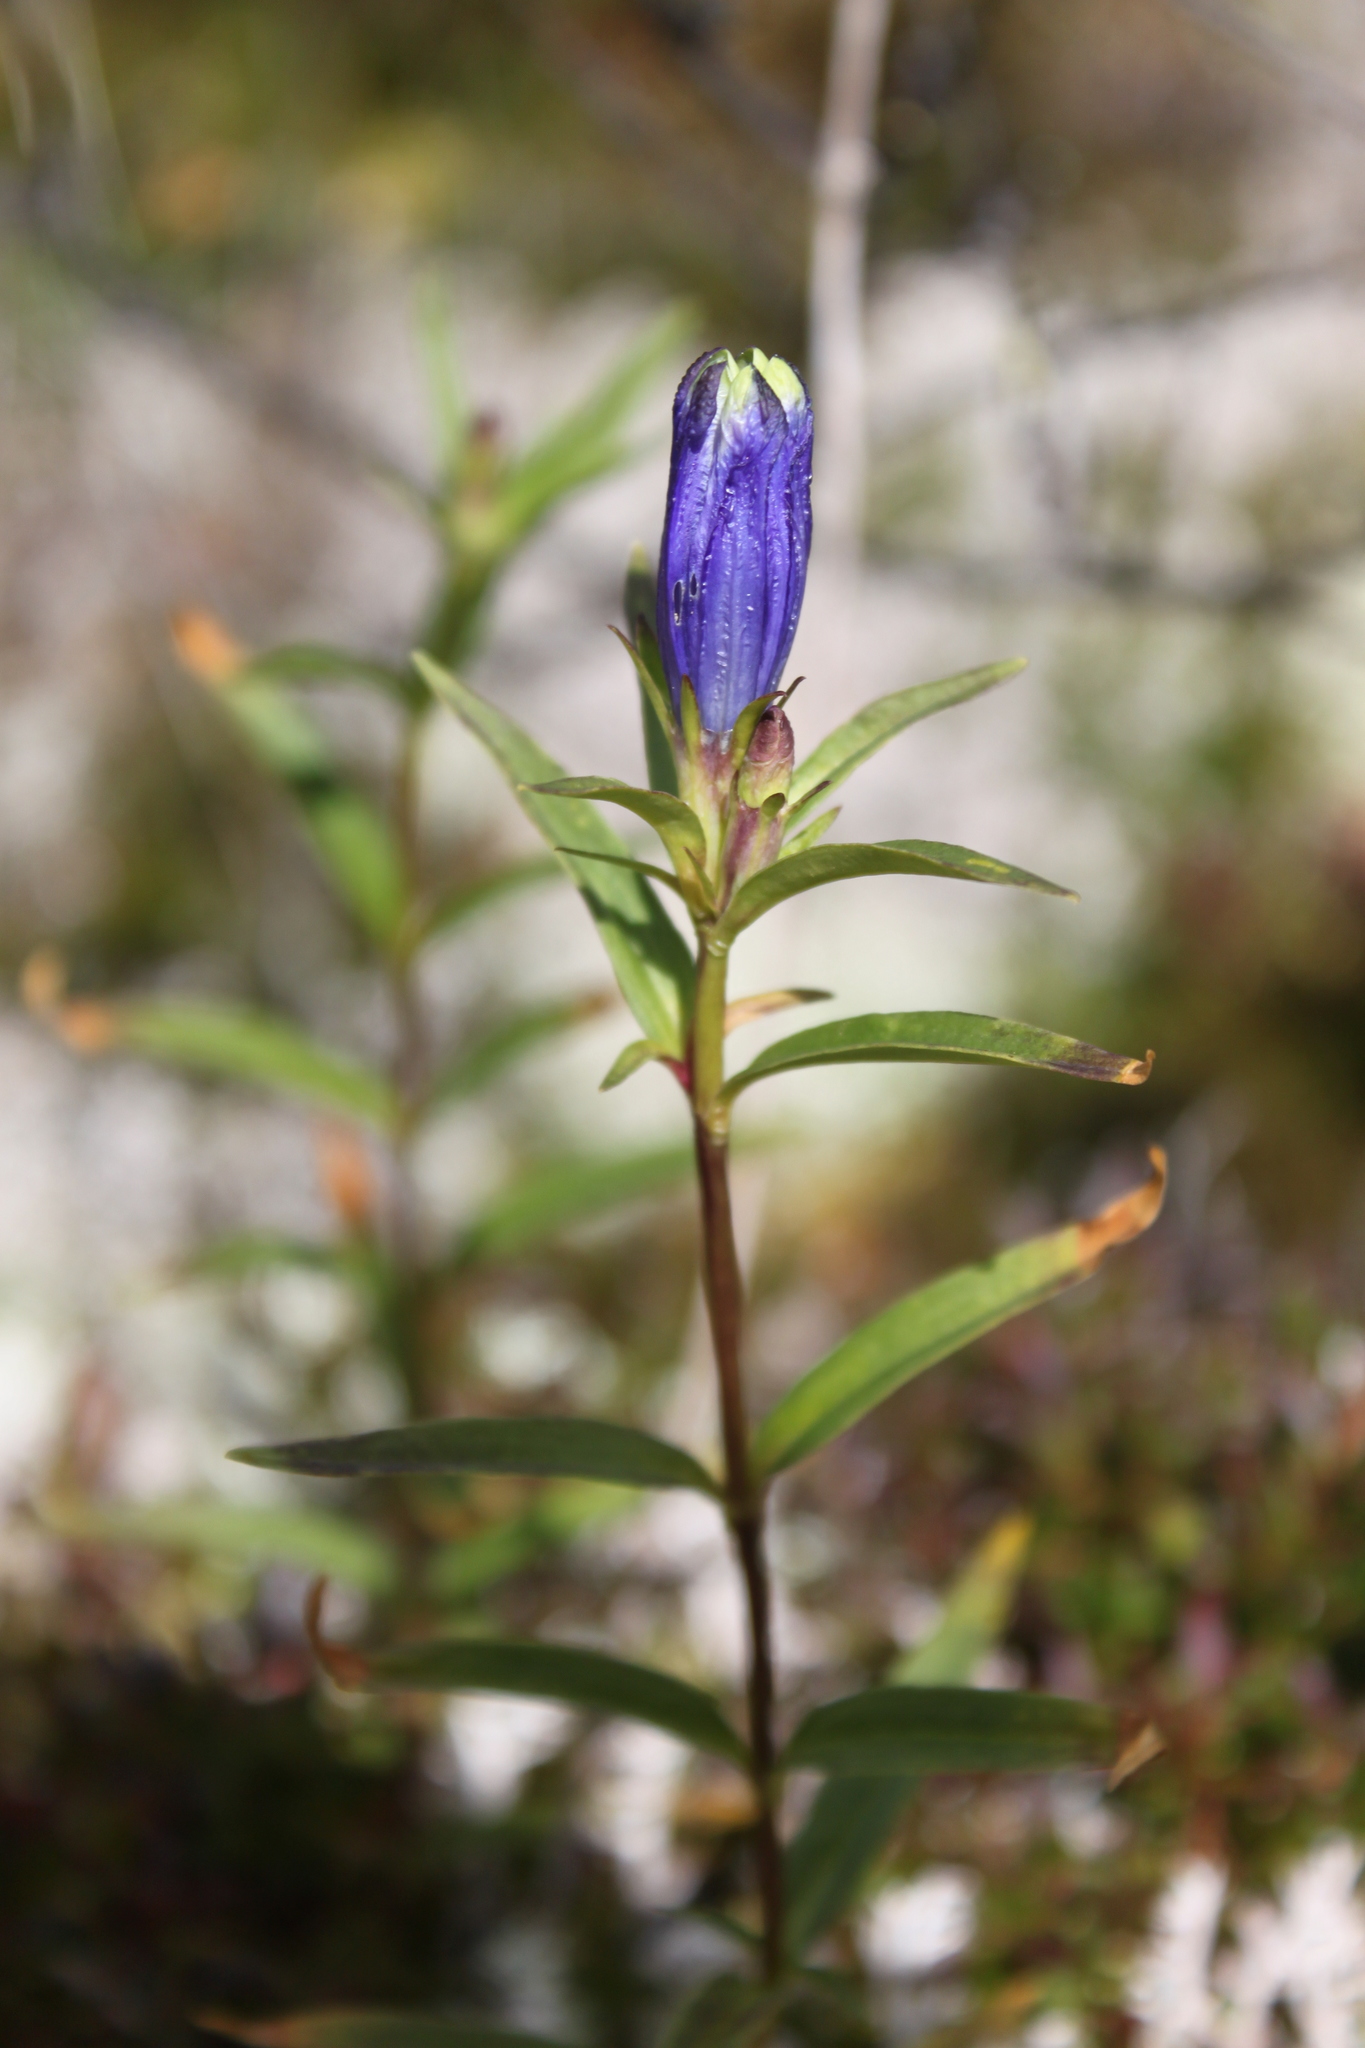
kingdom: Plantae
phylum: Tracheophyta
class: Magnoliopsida
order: Gentianales
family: Gentianaceae
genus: Gentiana
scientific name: Gentiana linearis
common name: Bastard gentian
